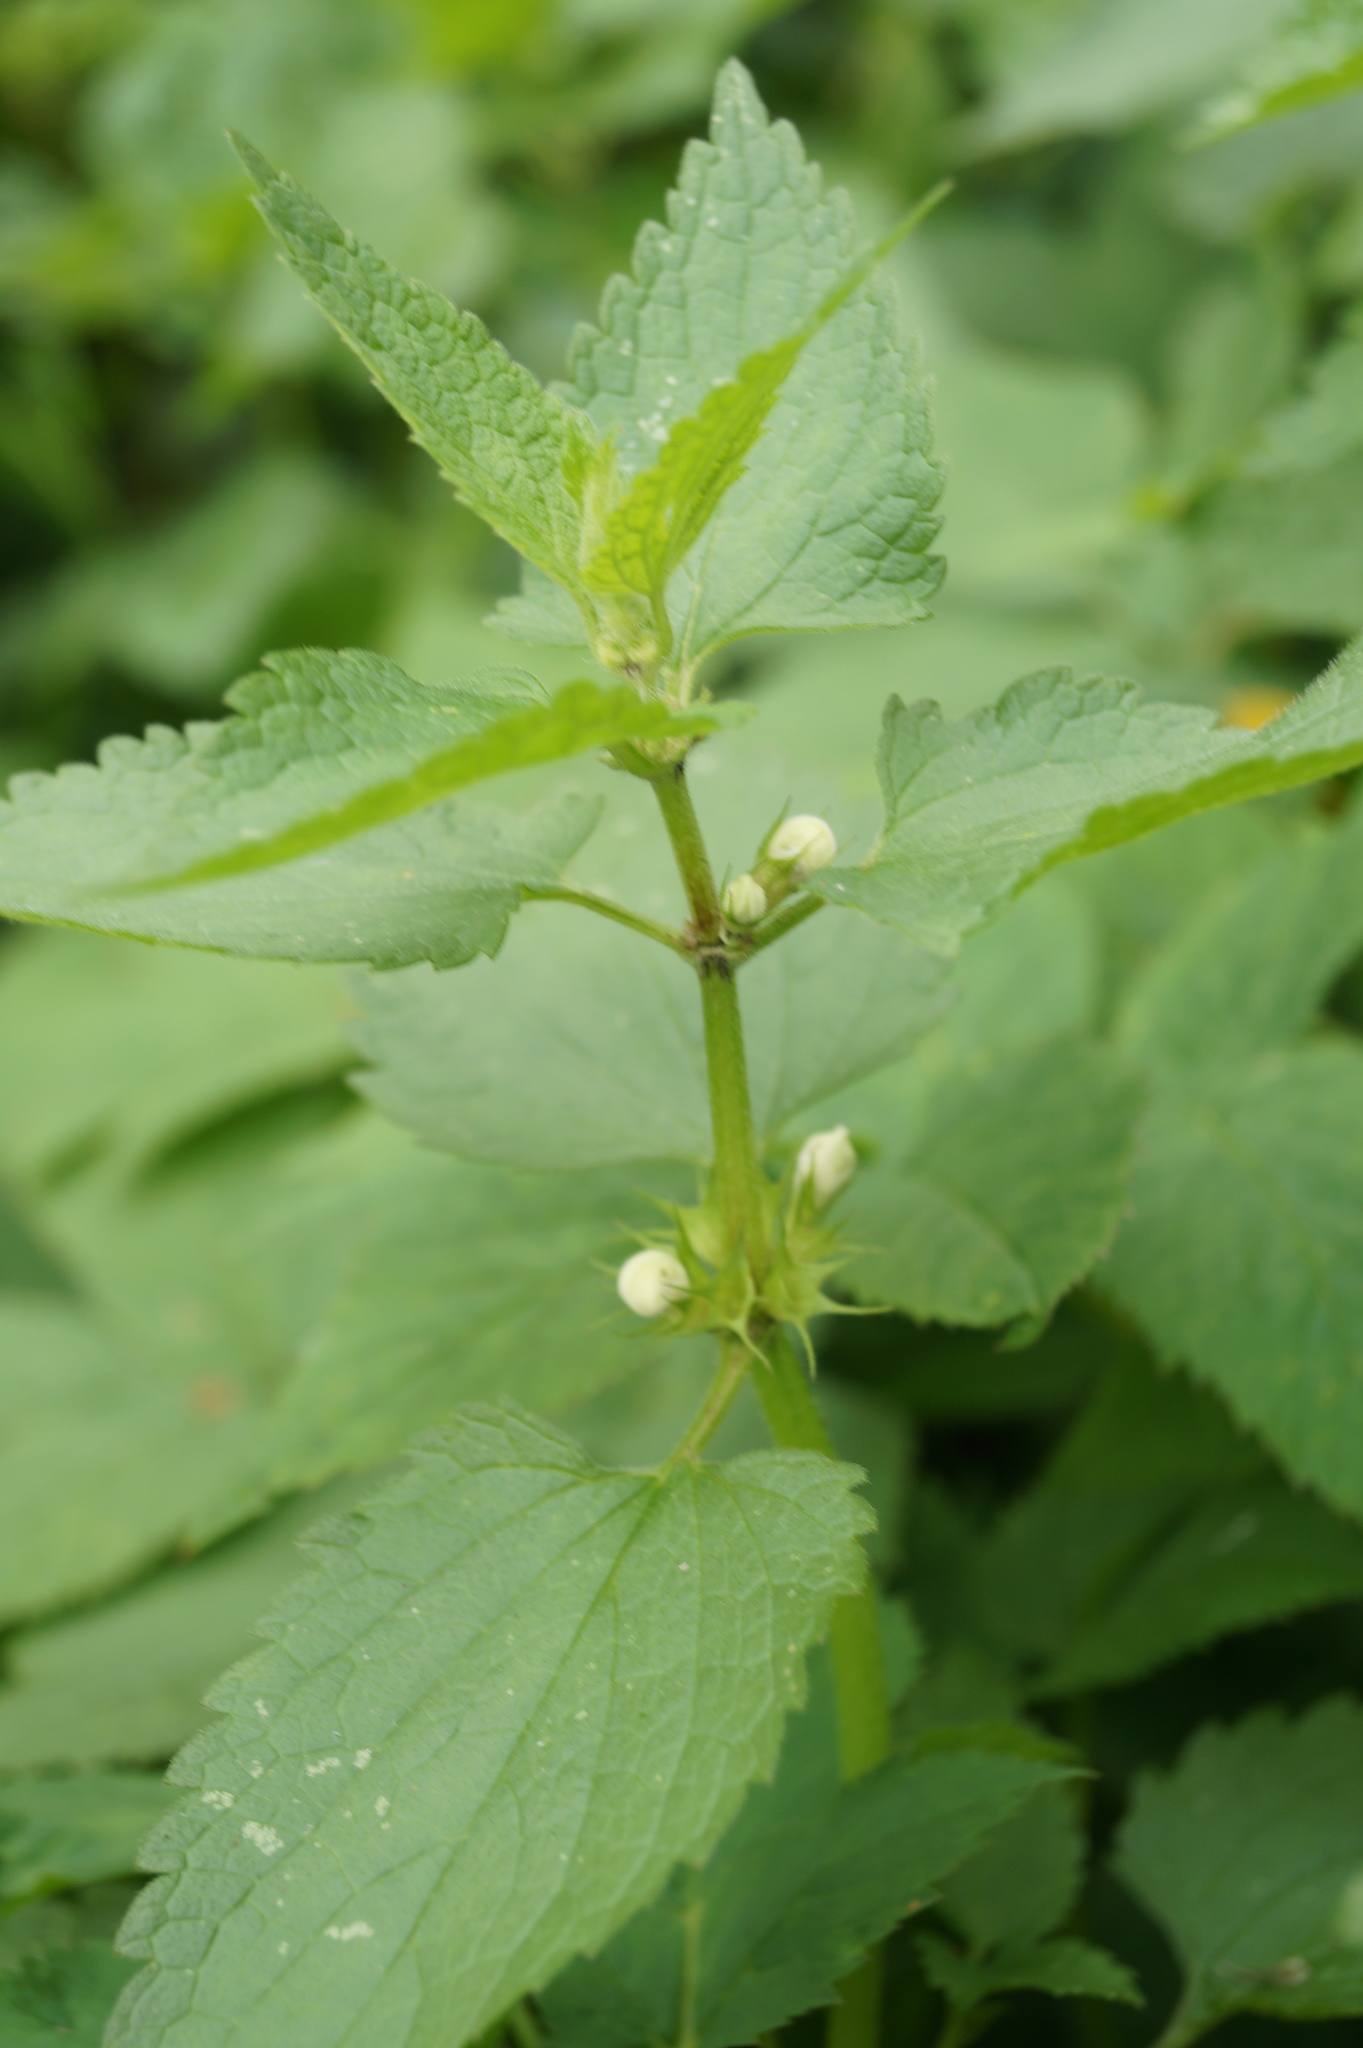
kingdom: Plantae
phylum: Tracheophyta
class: Magnoliopsida
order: Lamiales
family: Lamiaceae
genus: Lamium
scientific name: Lamium album
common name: White dead-nettle
